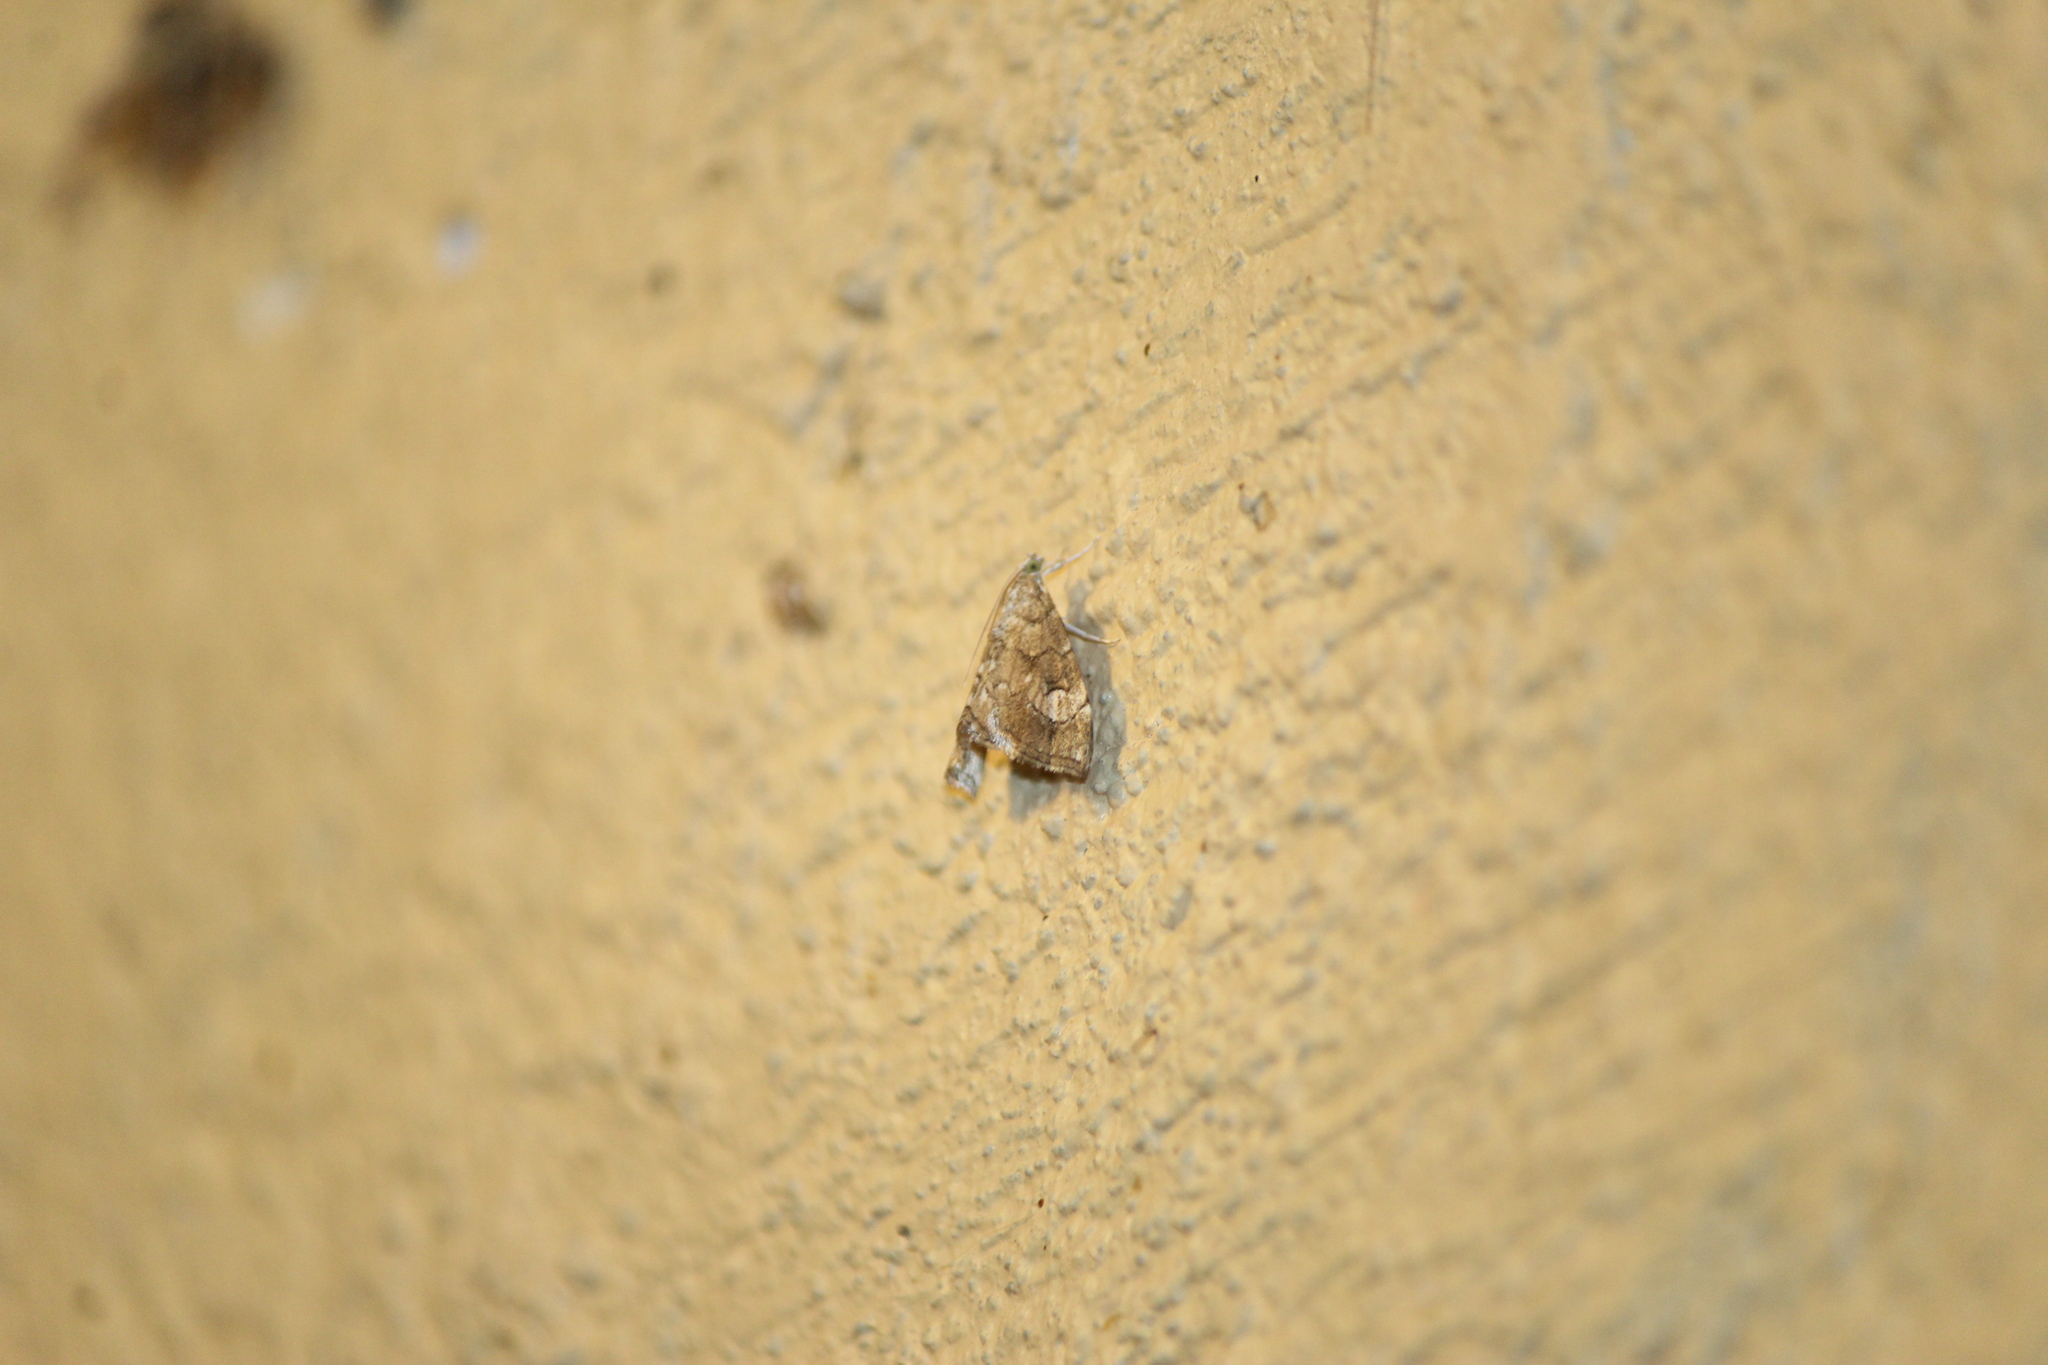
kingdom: Animalia
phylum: Arthropoda
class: Insecta
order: Lepidoptera
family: Crambidae
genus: Scybalistodes
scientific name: Scybalistodes periculosalis
